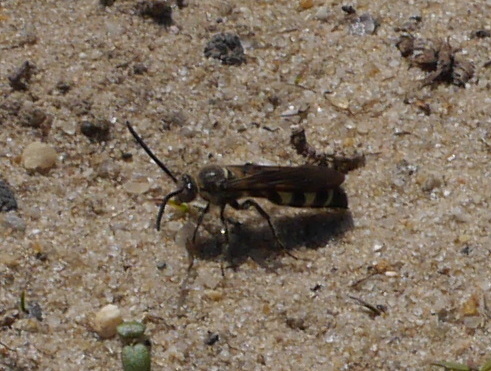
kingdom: Animalia
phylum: Arthropoda
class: Insecta
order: Hymenoptera
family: Scoliidae
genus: Dielis
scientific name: Dielis
